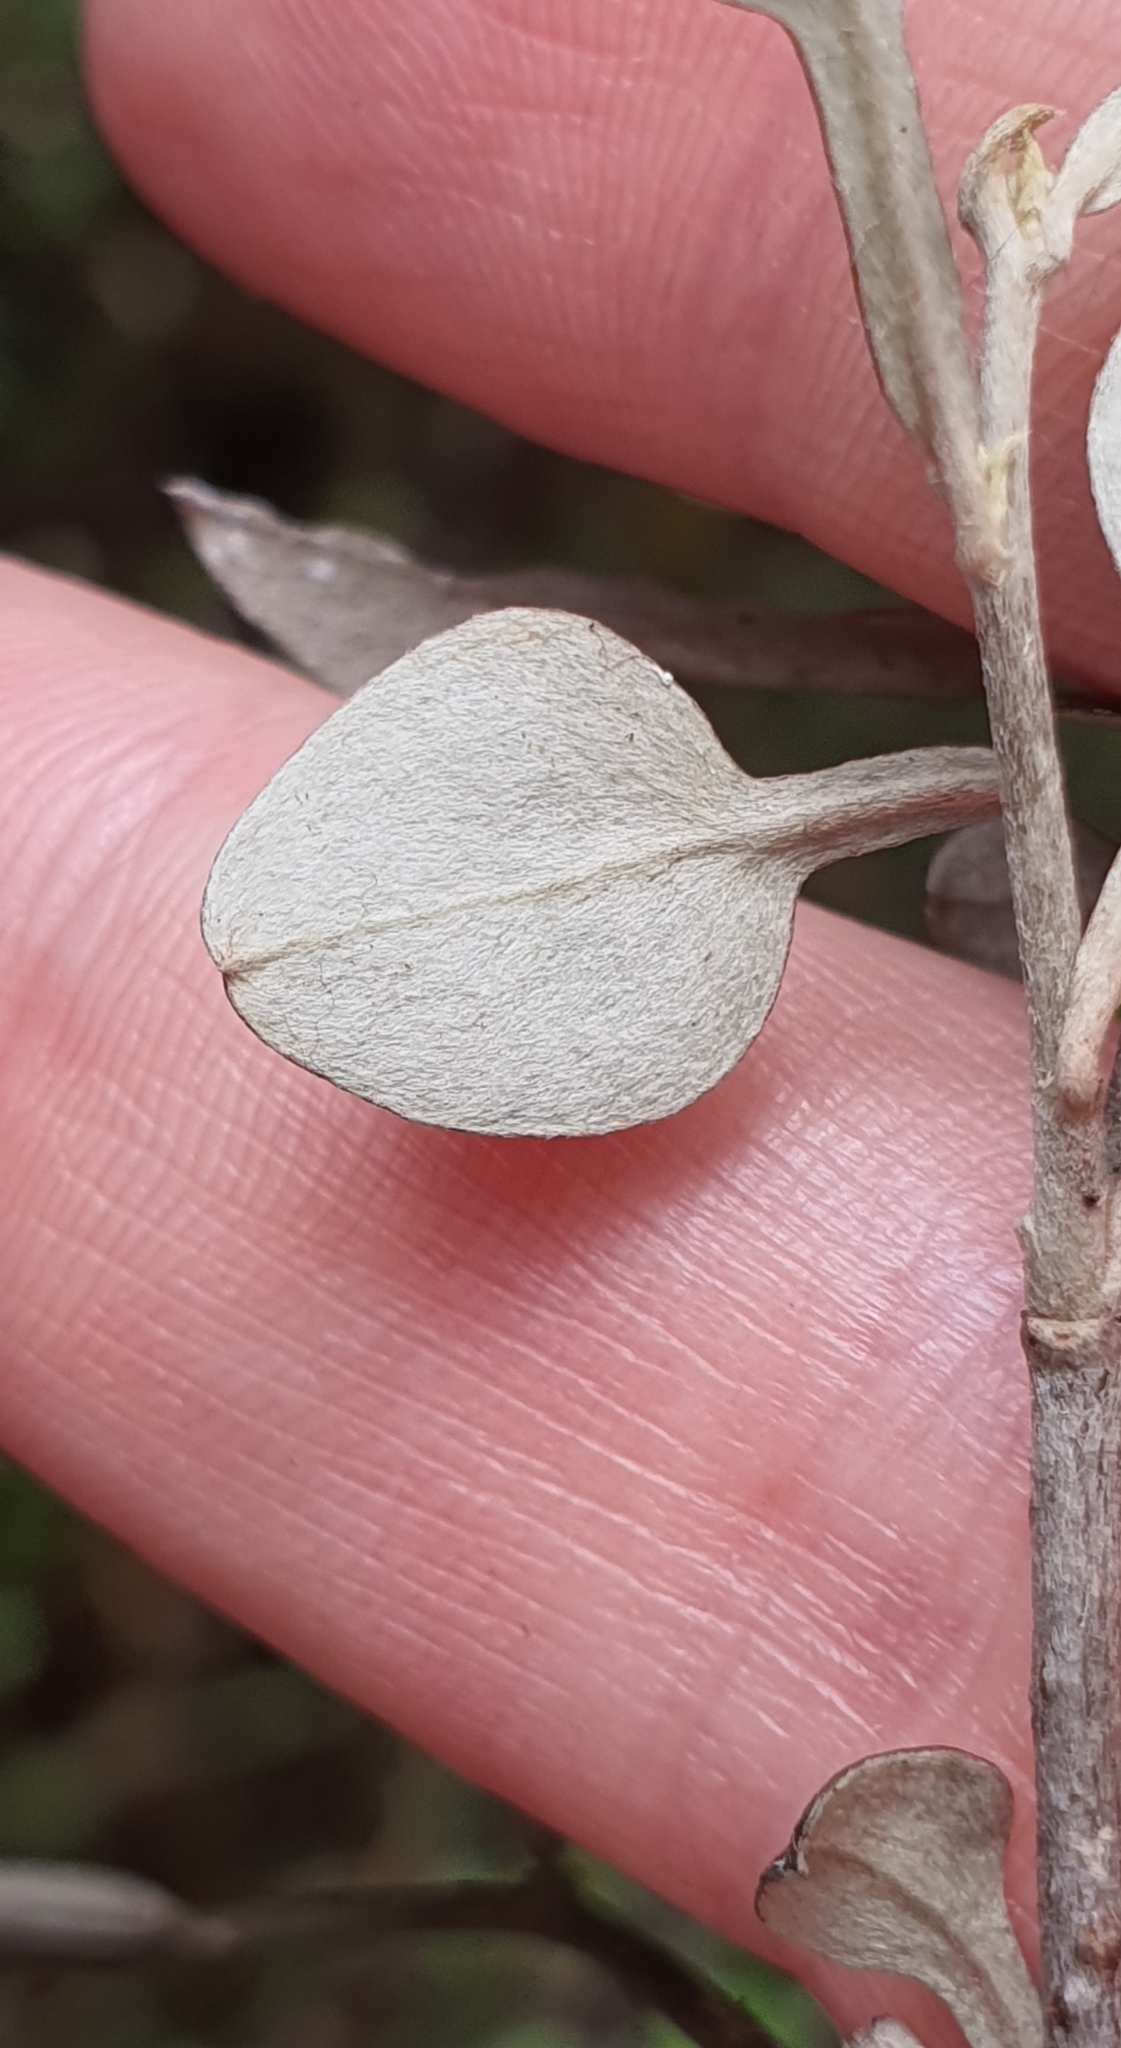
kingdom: Plantae
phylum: Tracheophyta
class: Magnoliopsida
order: Asterales
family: Argophyllaceae
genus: Corokia
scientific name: Corokia cotoneaster
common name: Wire nettingbush
